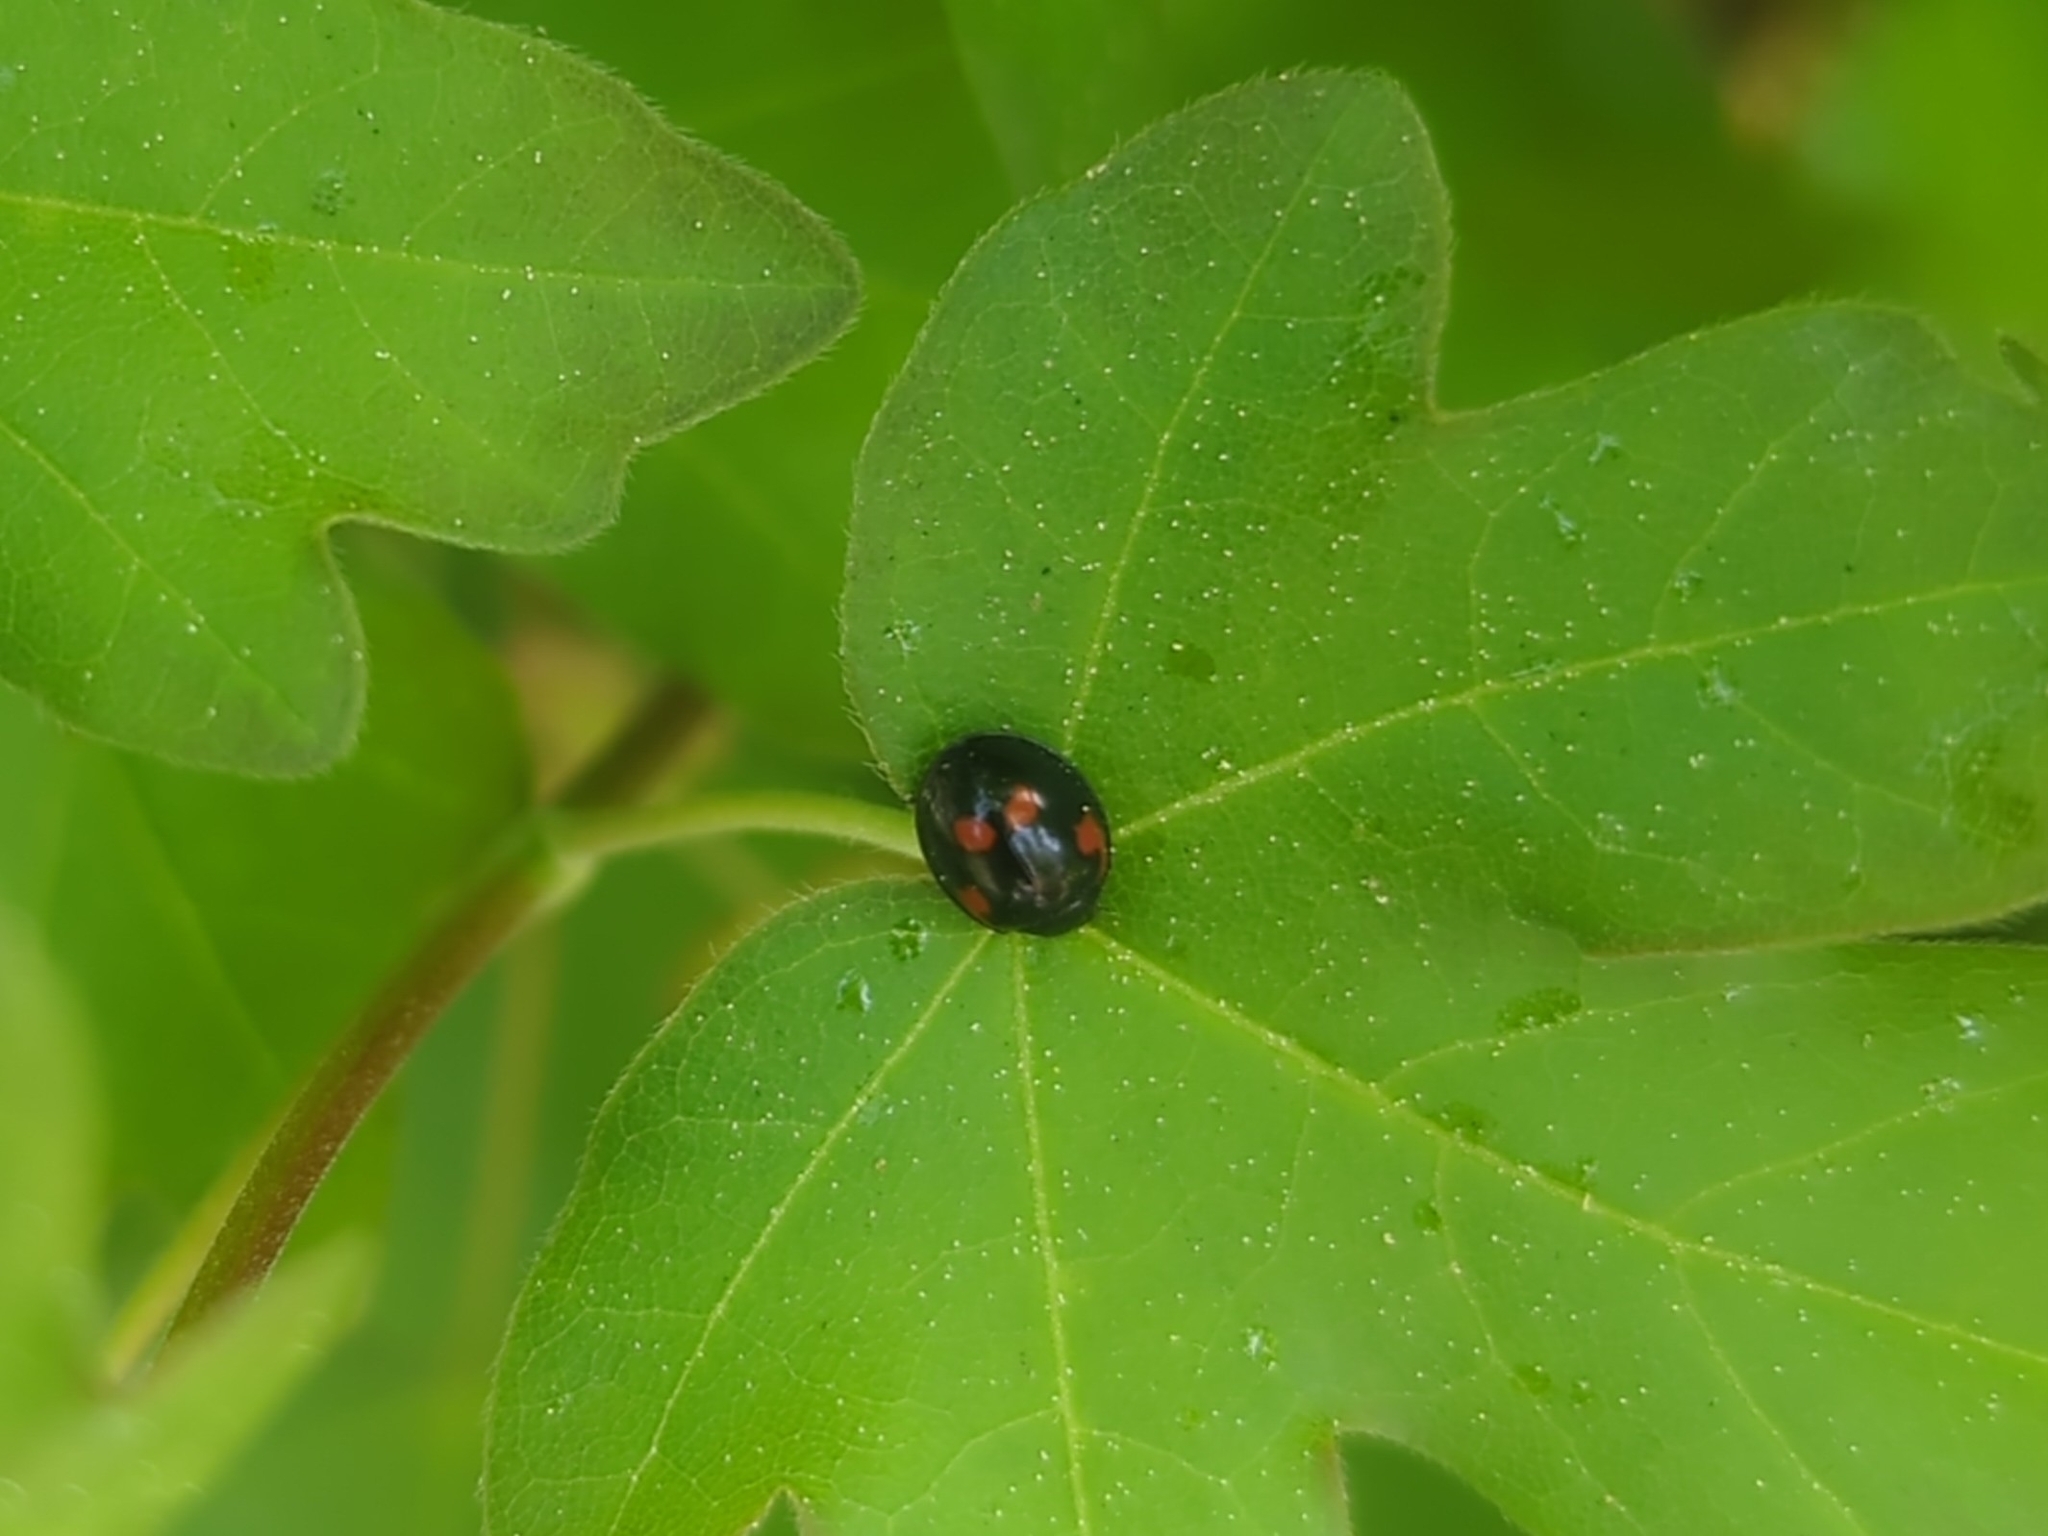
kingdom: Animalia
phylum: Arthropoda
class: Insecta
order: Coleoptera
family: Coccinellidae
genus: Brumus
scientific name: Brumus quadripustulatus
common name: Ladybird beetle
